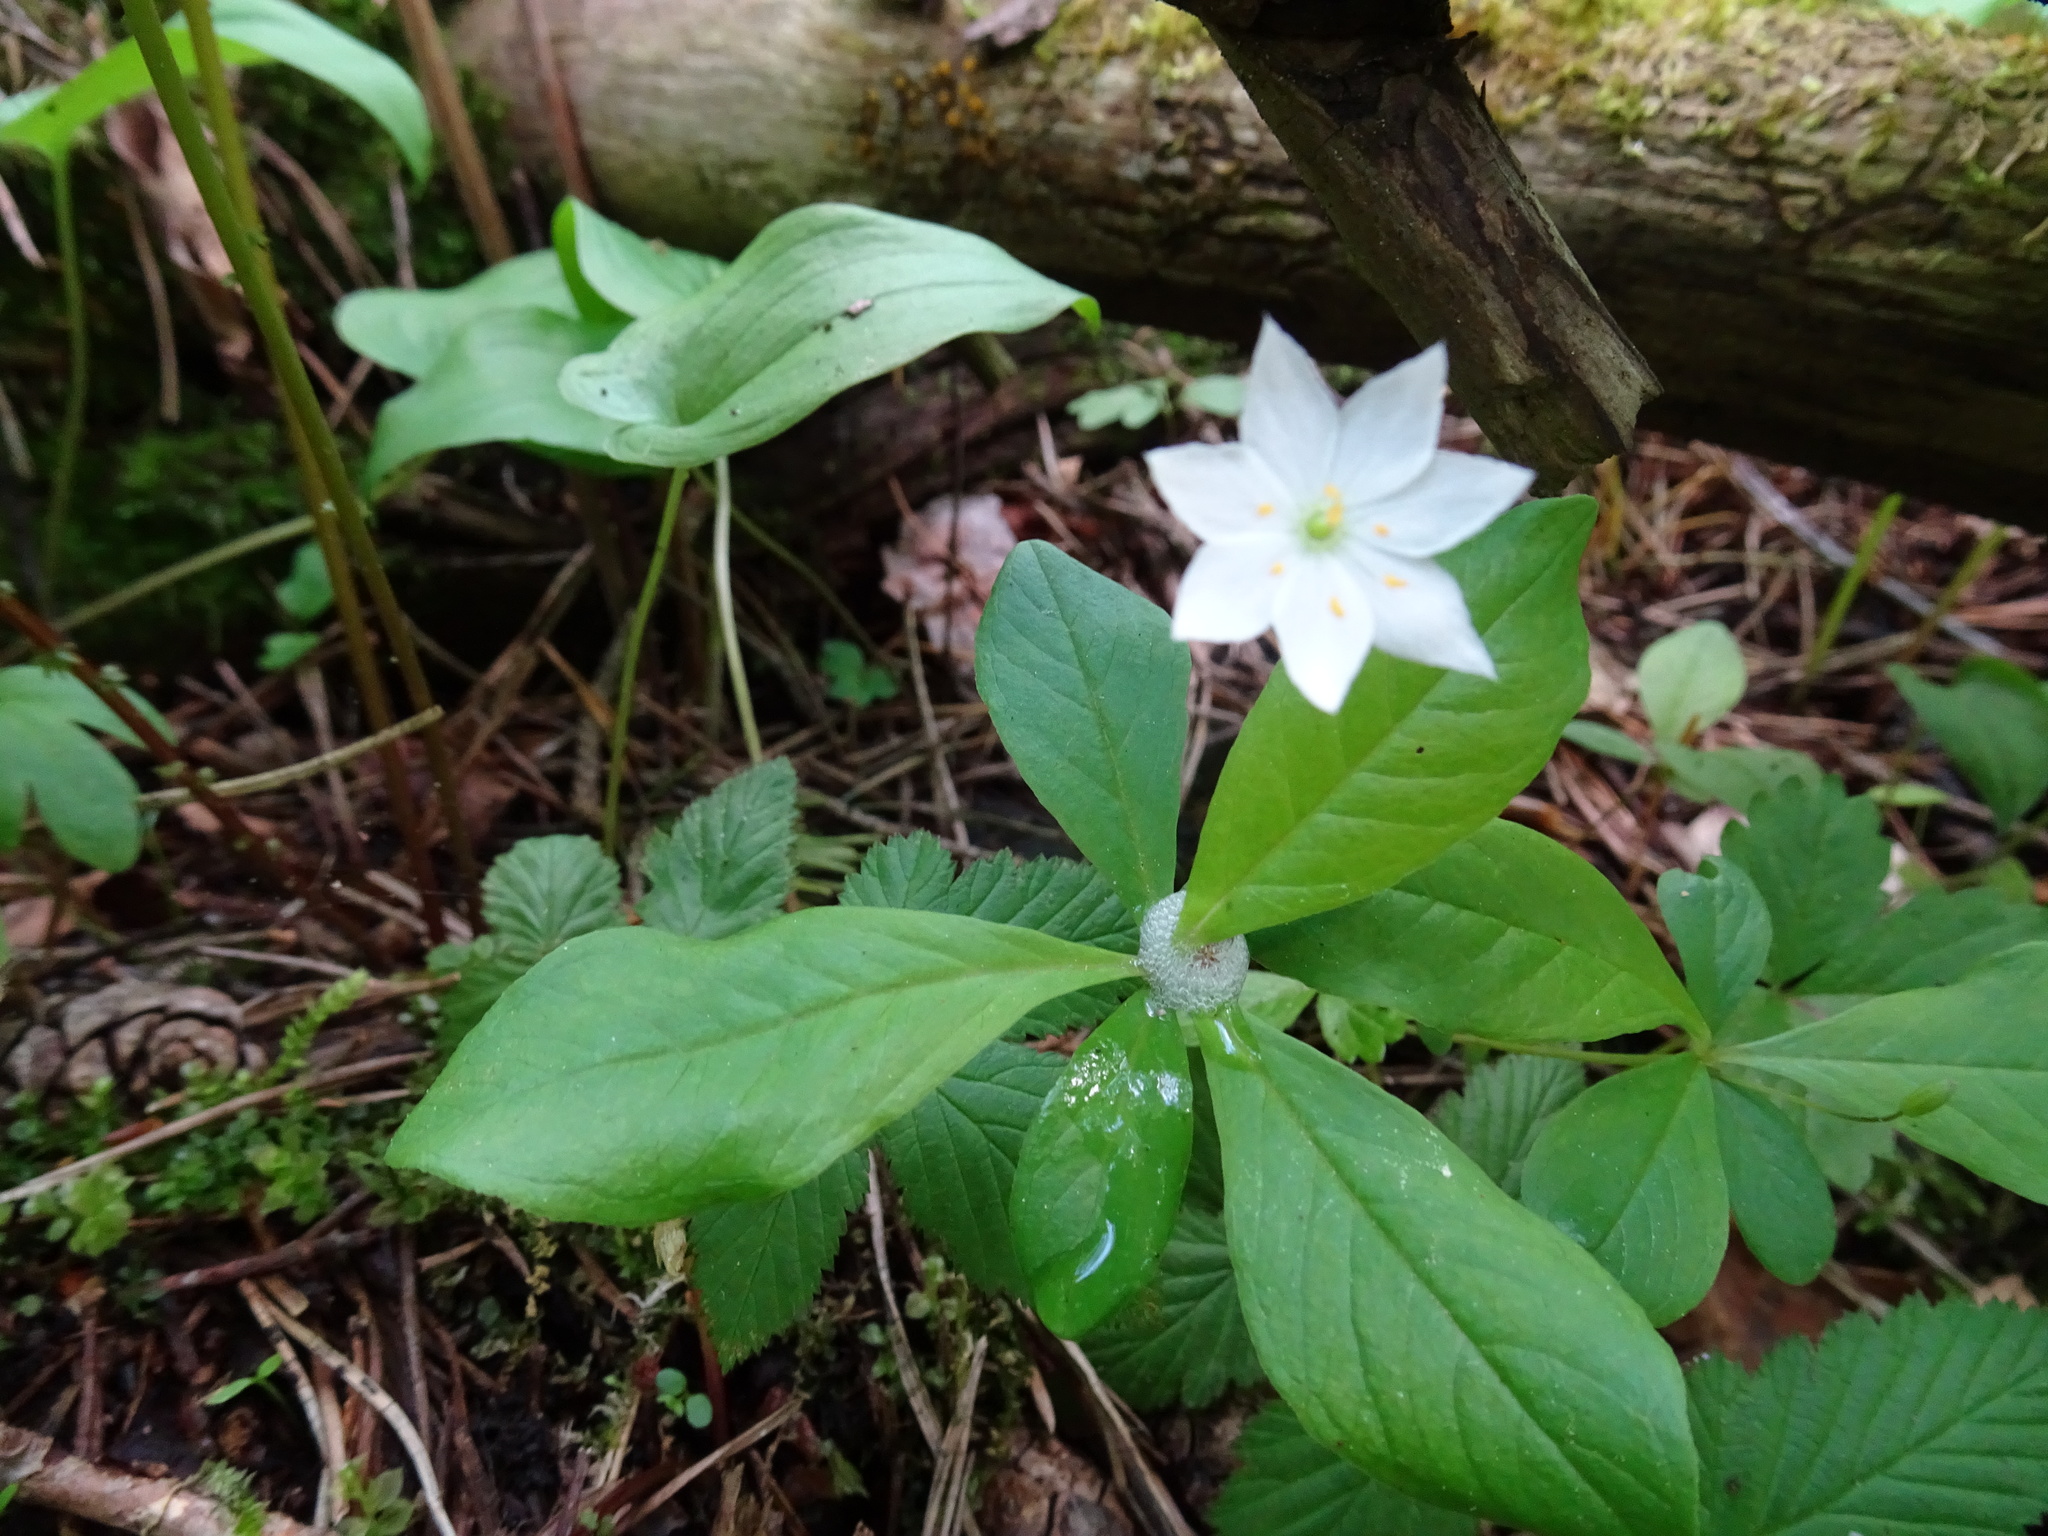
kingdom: Plantae
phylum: Tracheophyta
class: Magnoliopsida
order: Ericales
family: Primulaceae
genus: Lysimachia
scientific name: Lysimachia europaea
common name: Arctic starflower
